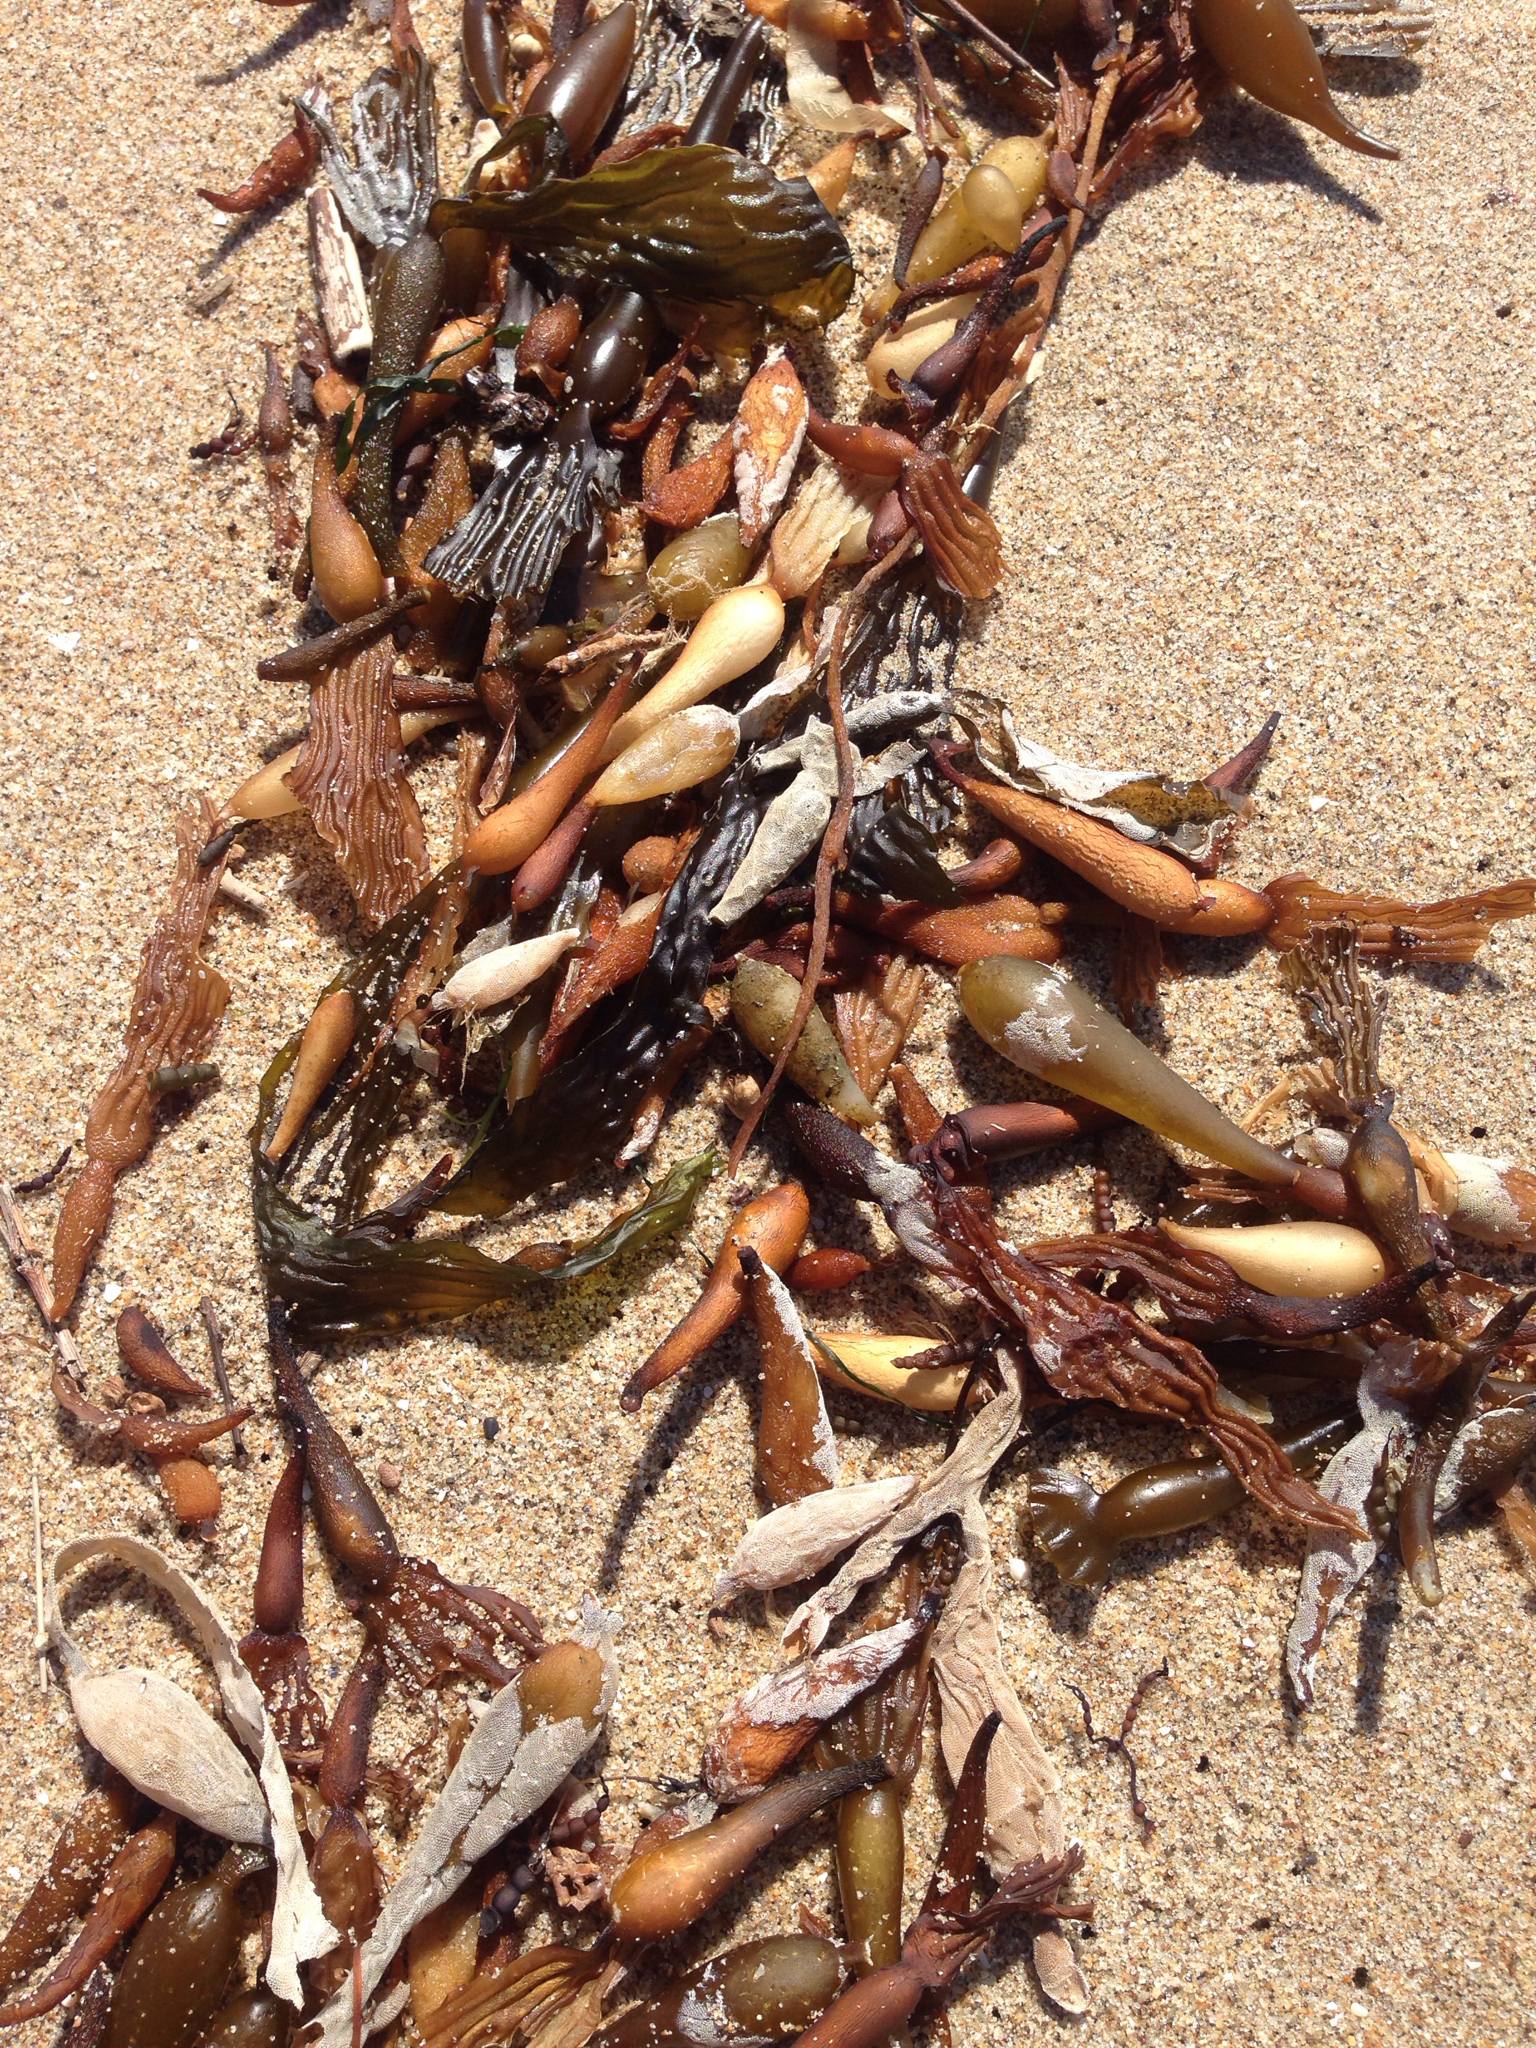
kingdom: Chromista
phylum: Ochrophyta
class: Phaeophyceae
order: Laminariales
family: Laminariaceae
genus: Macrocystis
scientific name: Macrocystis pyrifera
